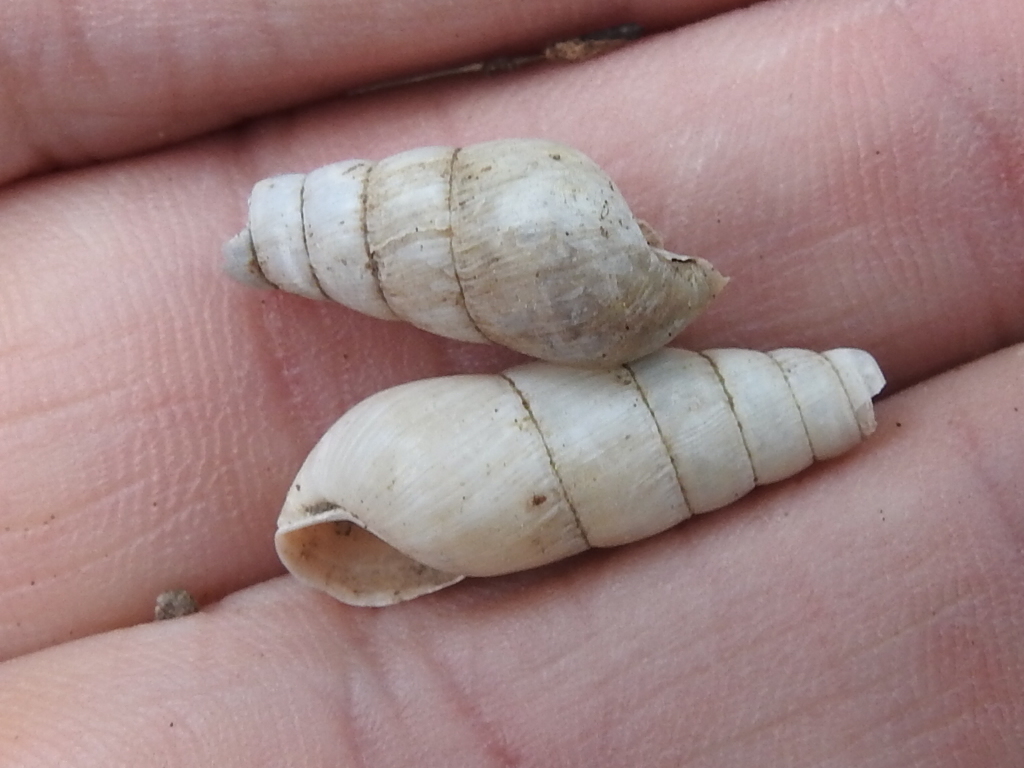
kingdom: Animalia
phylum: Mollusca
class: Gastropoda
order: Stylommatophora
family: Achatinidae
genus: Rumina
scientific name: Rumina decollata
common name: Decollate snail
